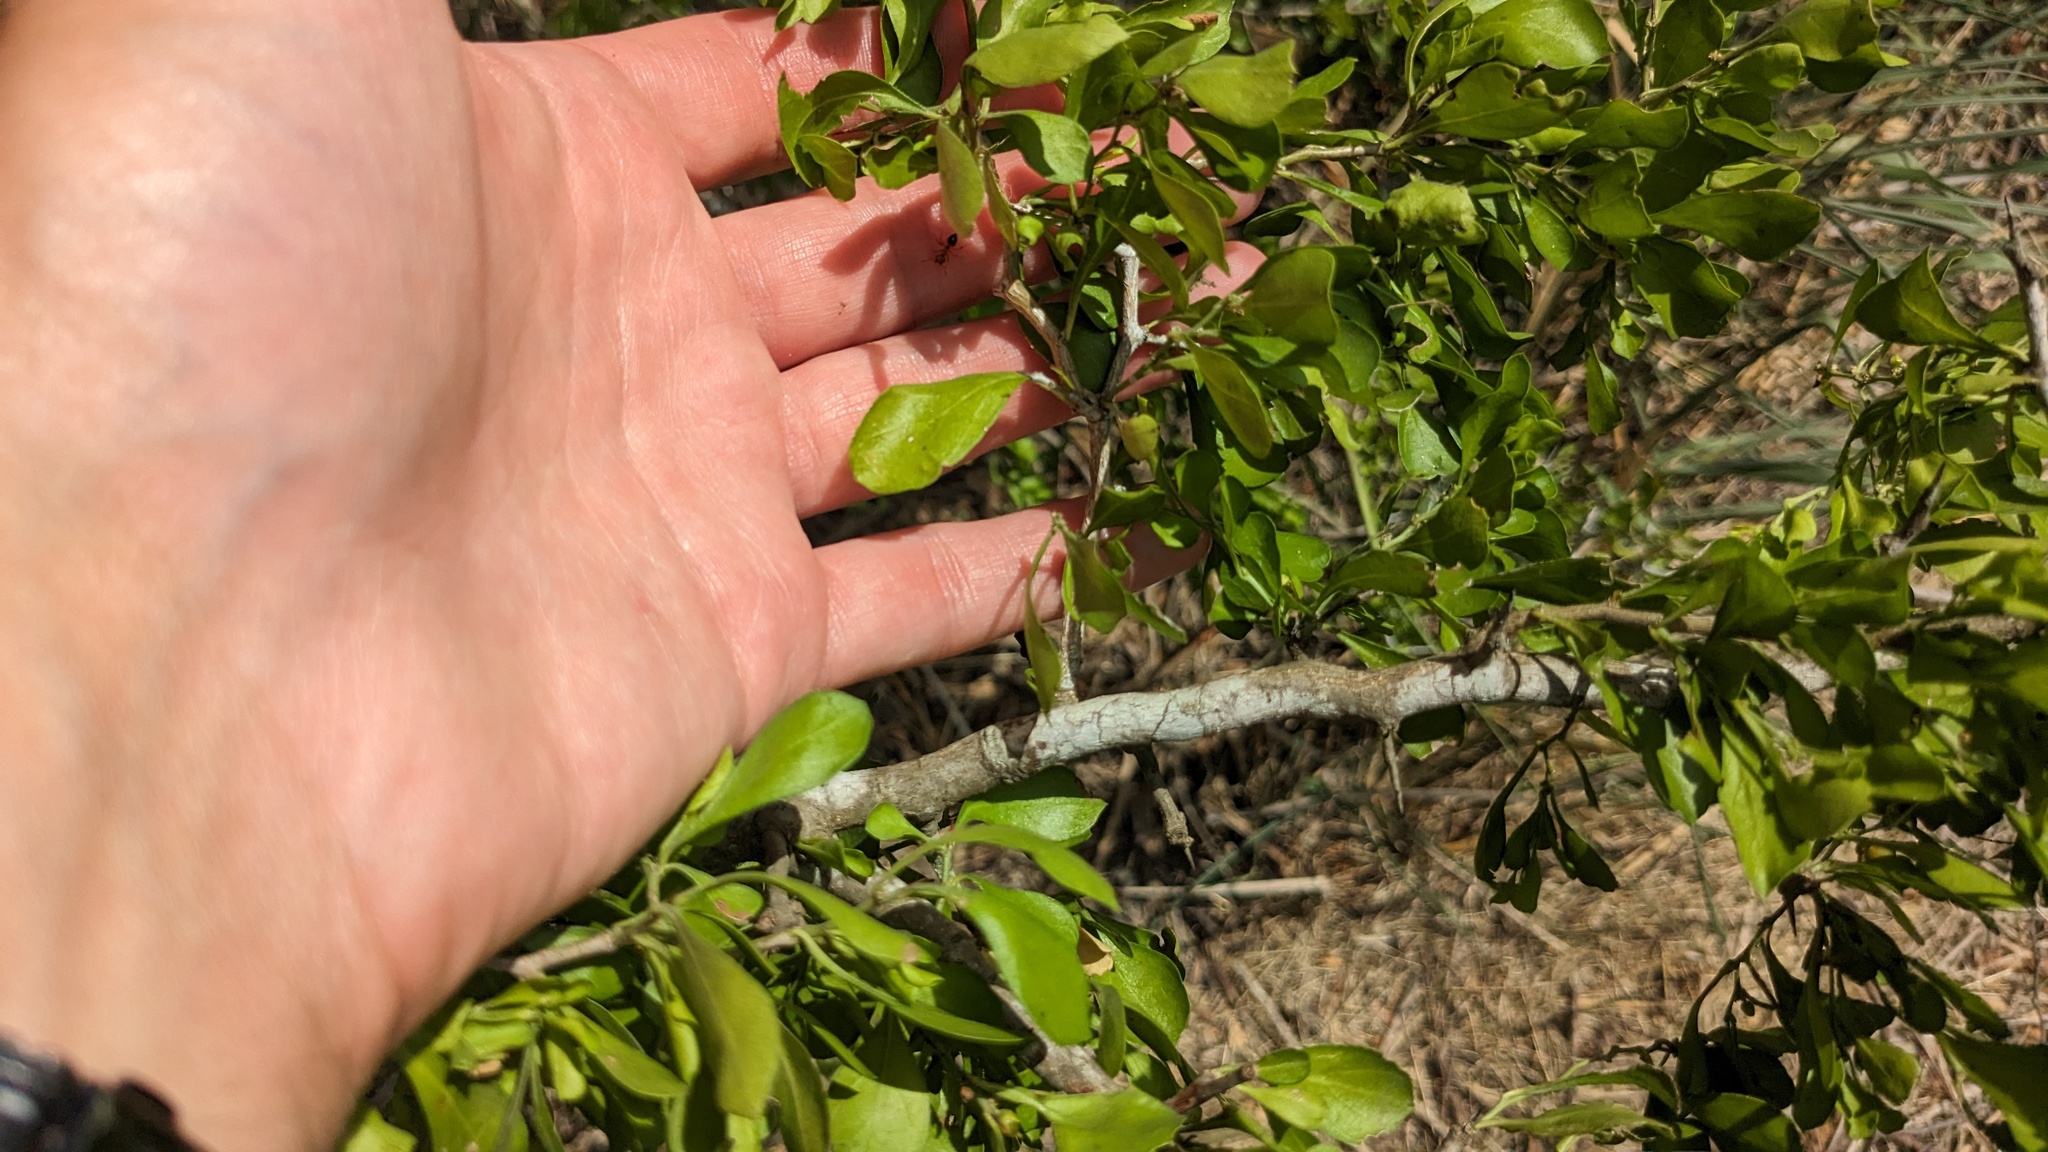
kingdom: Plantae
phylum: Tracheophyta
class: Magnoliopsida
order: Rosales
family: Rhamnaceae
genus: Condalia
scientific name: Condalia hookeri
